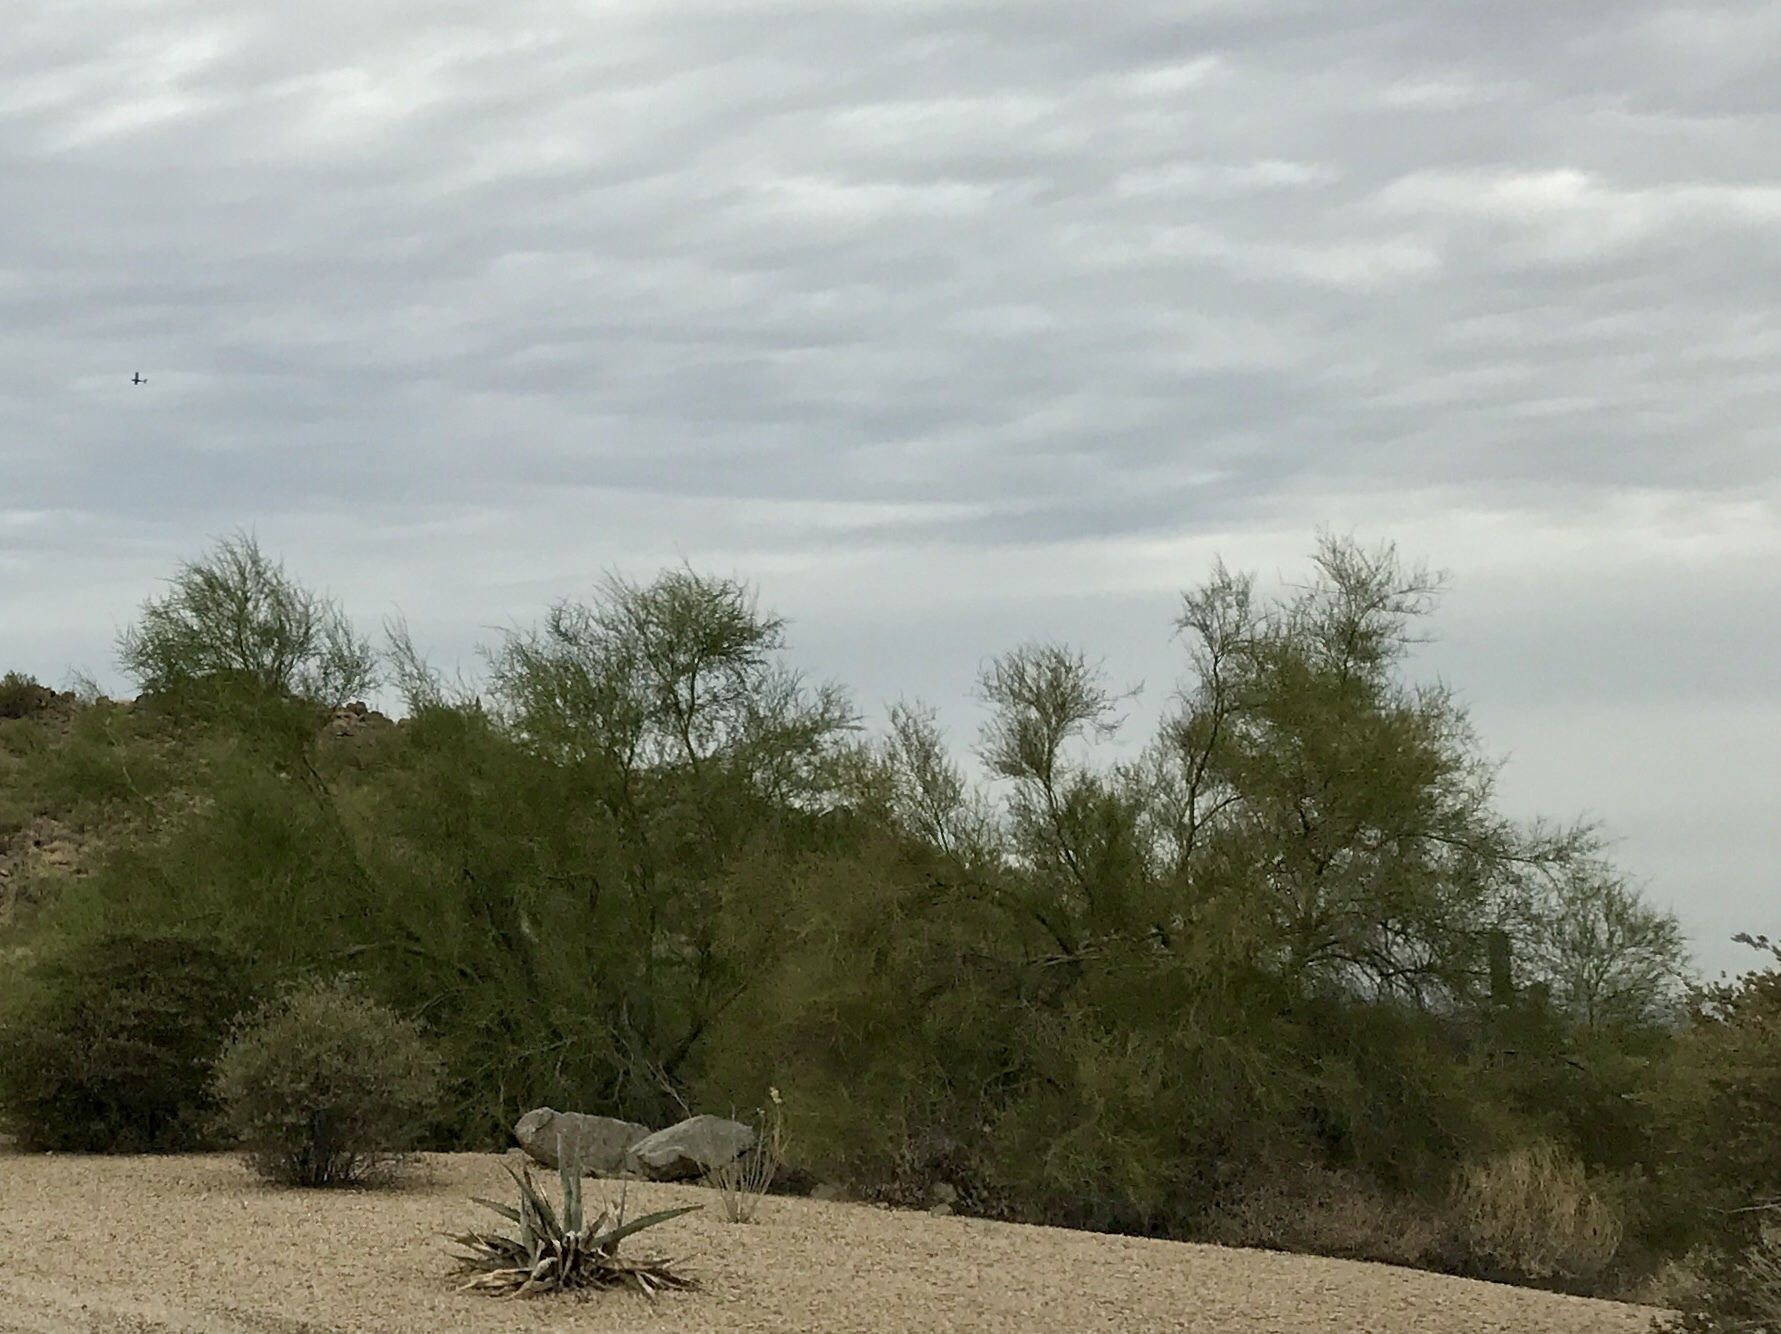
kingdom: Plantae
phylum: Tracheophyta
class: Magnoliopsida
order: Fabales
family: Fabaceae
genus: Parkinsonia
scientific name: Parkinsonia microphylla
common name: Yellow paloverde
